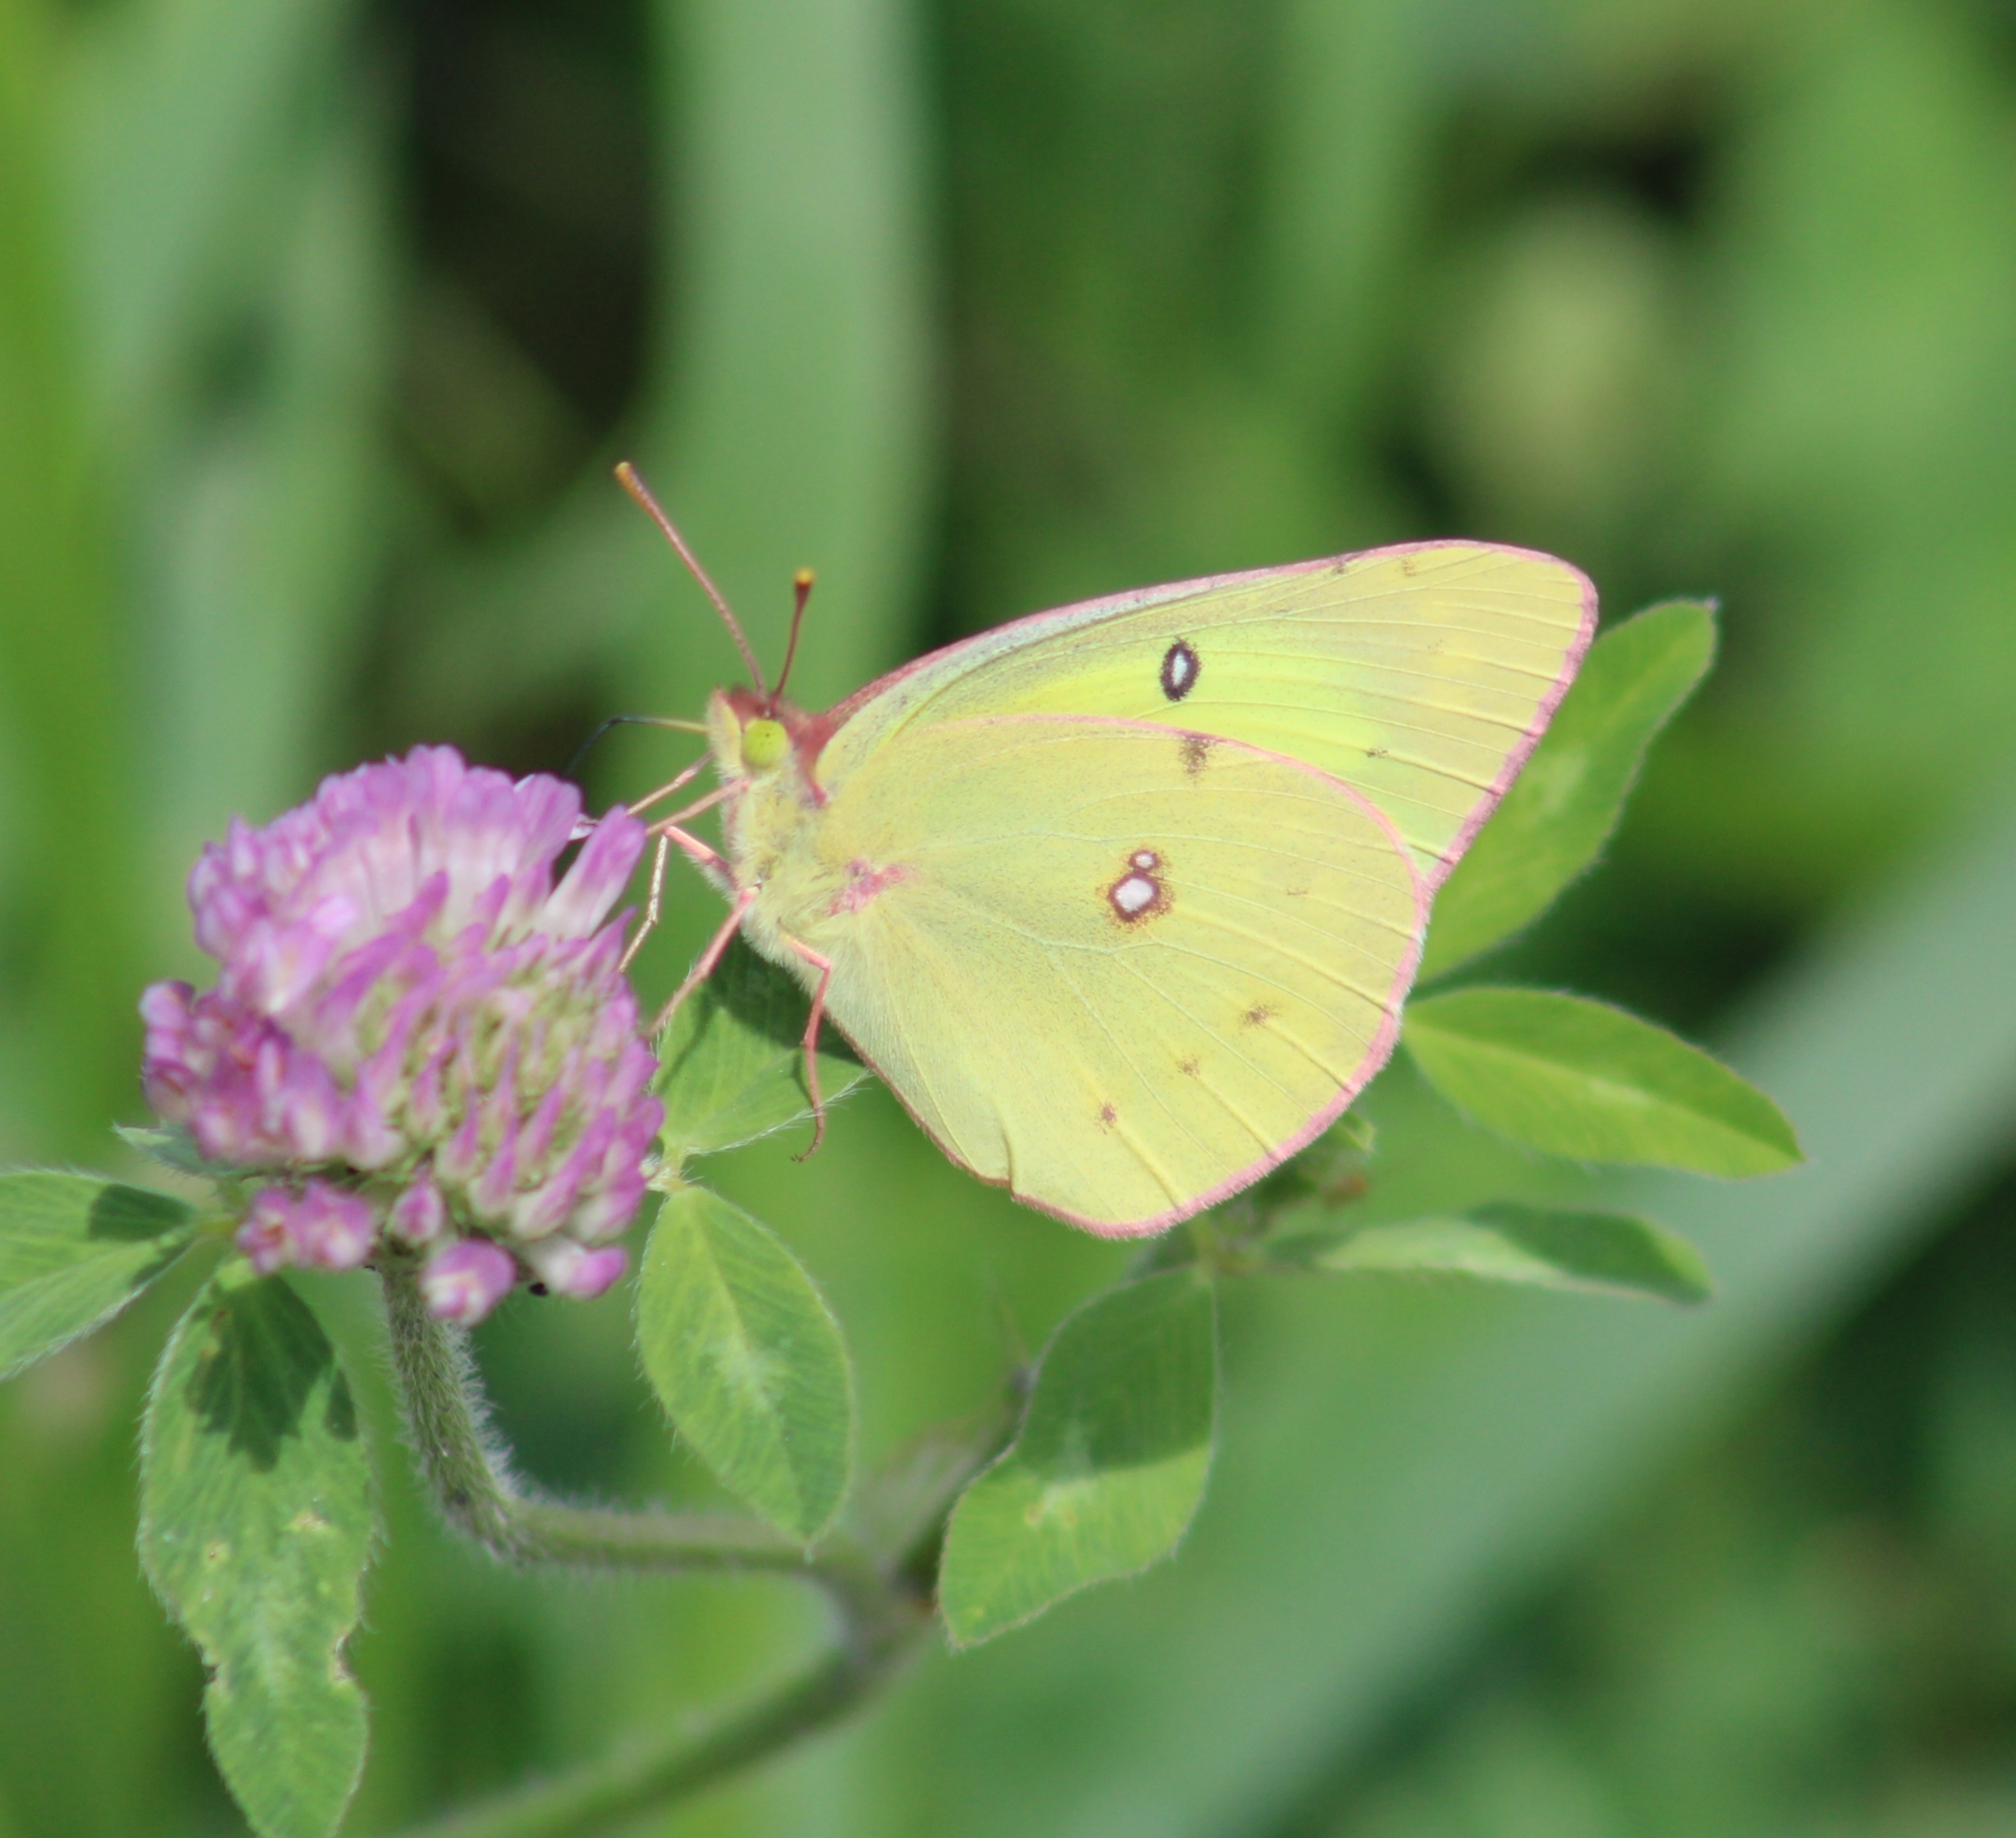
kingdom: Animalia
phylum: Arthropoda
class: Insecta
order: Lepidoptera
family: Pieridae
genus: Colias
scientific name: Colias philodice
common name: Clouded sulphur
